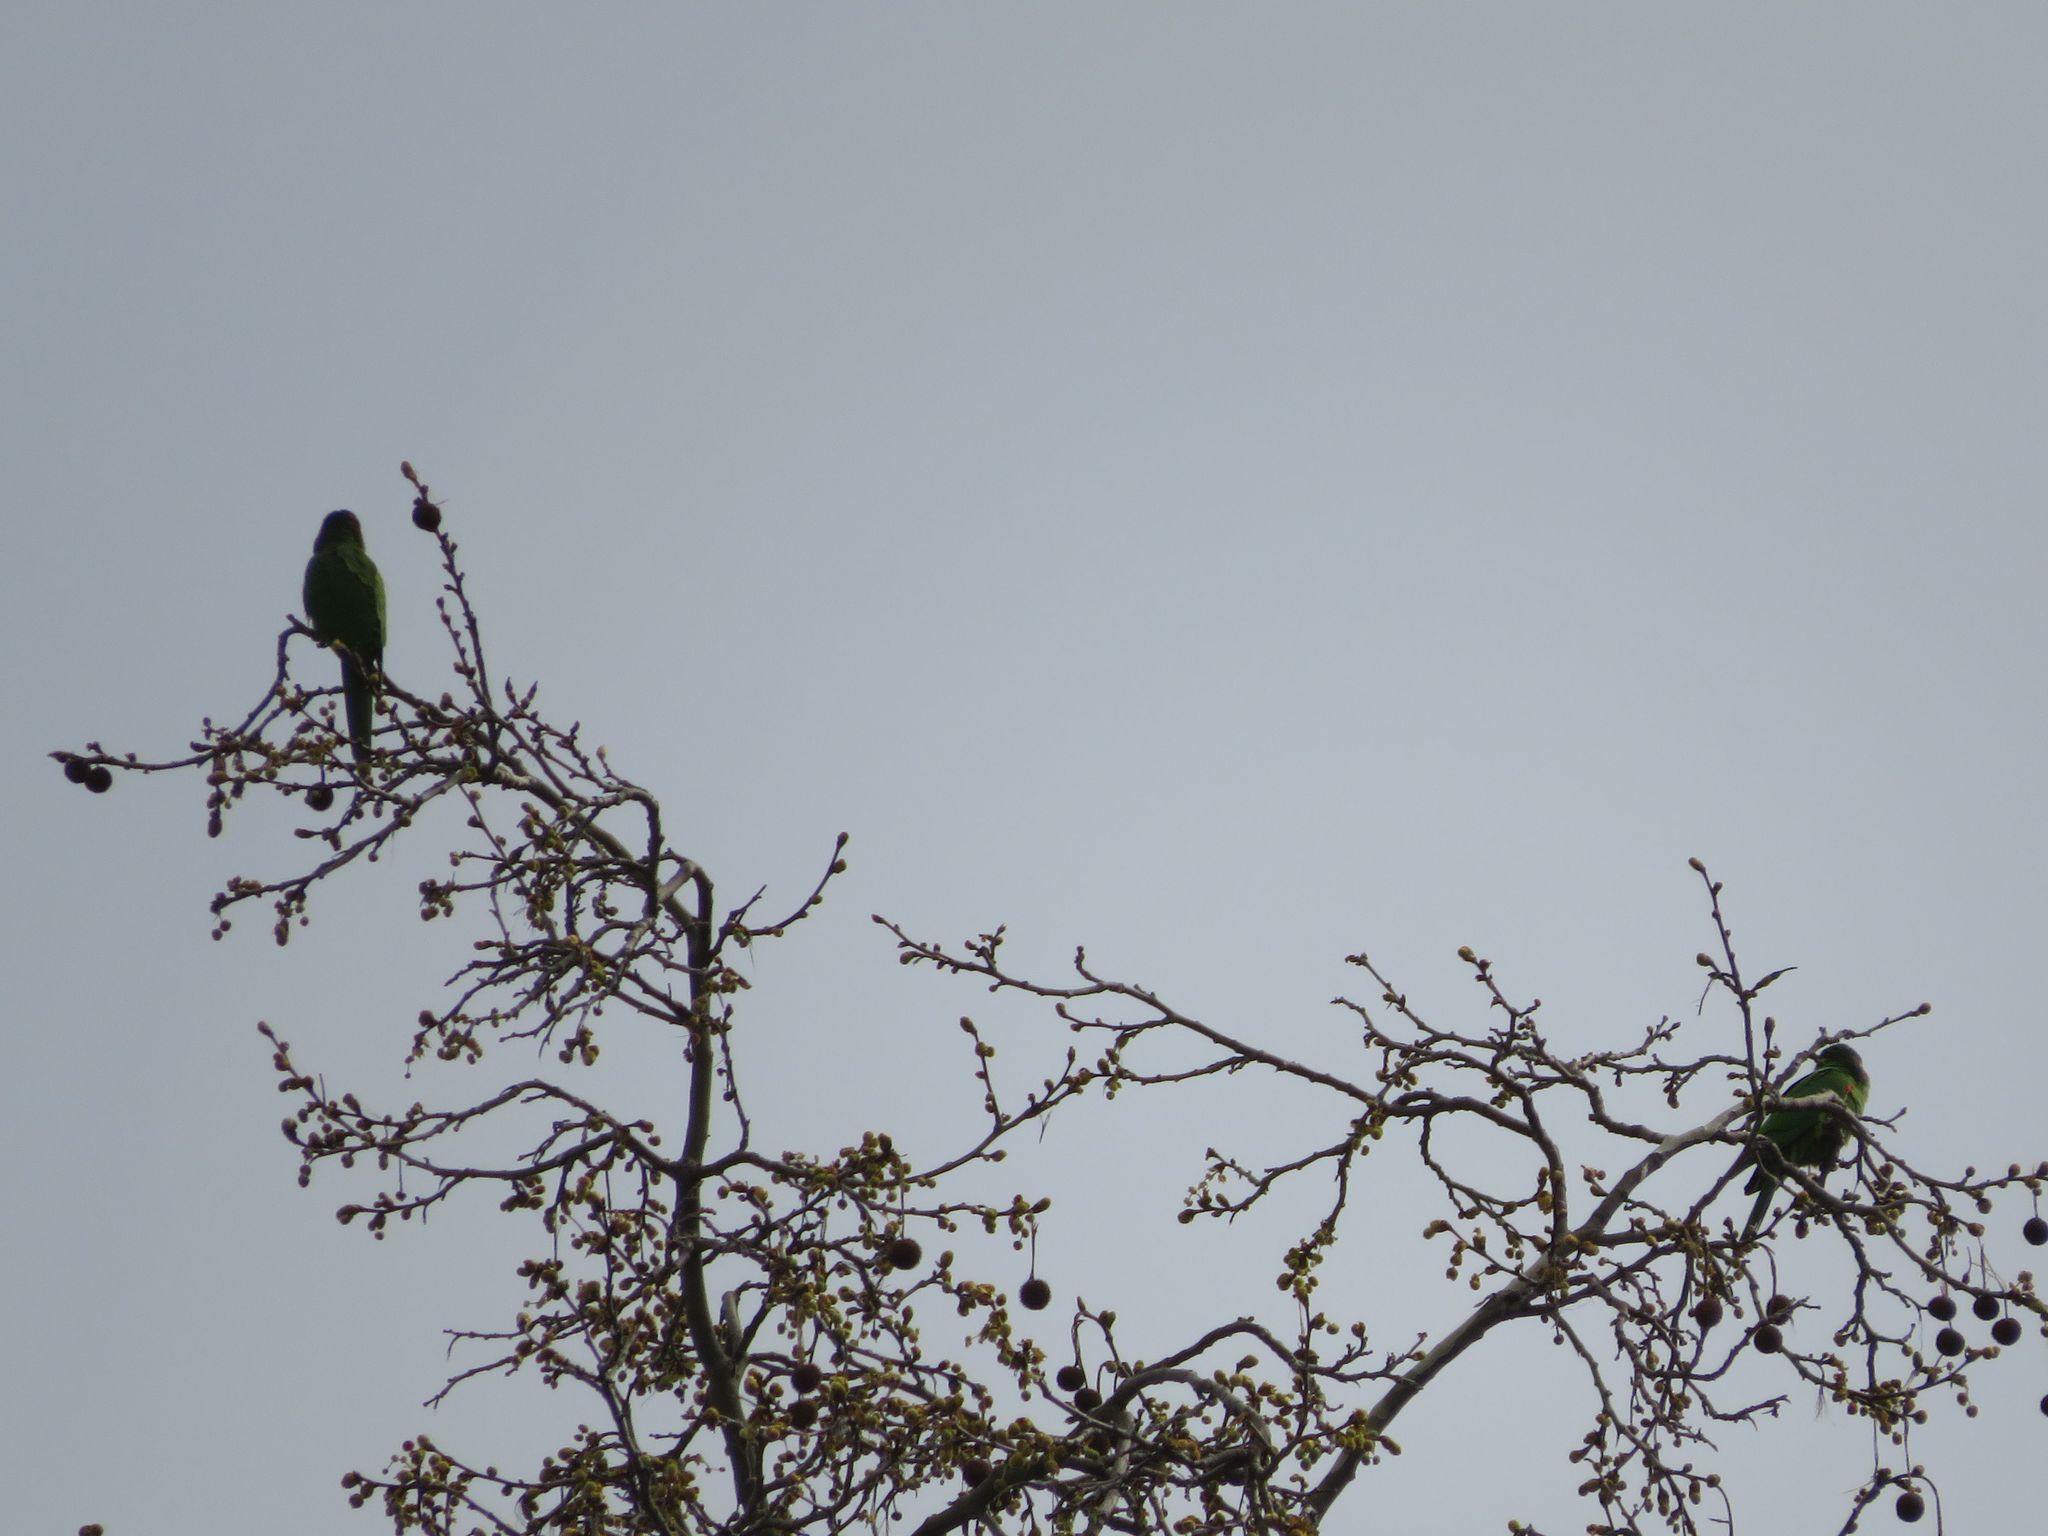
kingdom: Animalia
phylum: Chordata
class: Aves
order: Psittaciformes
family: Psittacidae
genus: Aratinga
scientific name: Aratinga leucophthalma
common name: White-eyed parakeet
